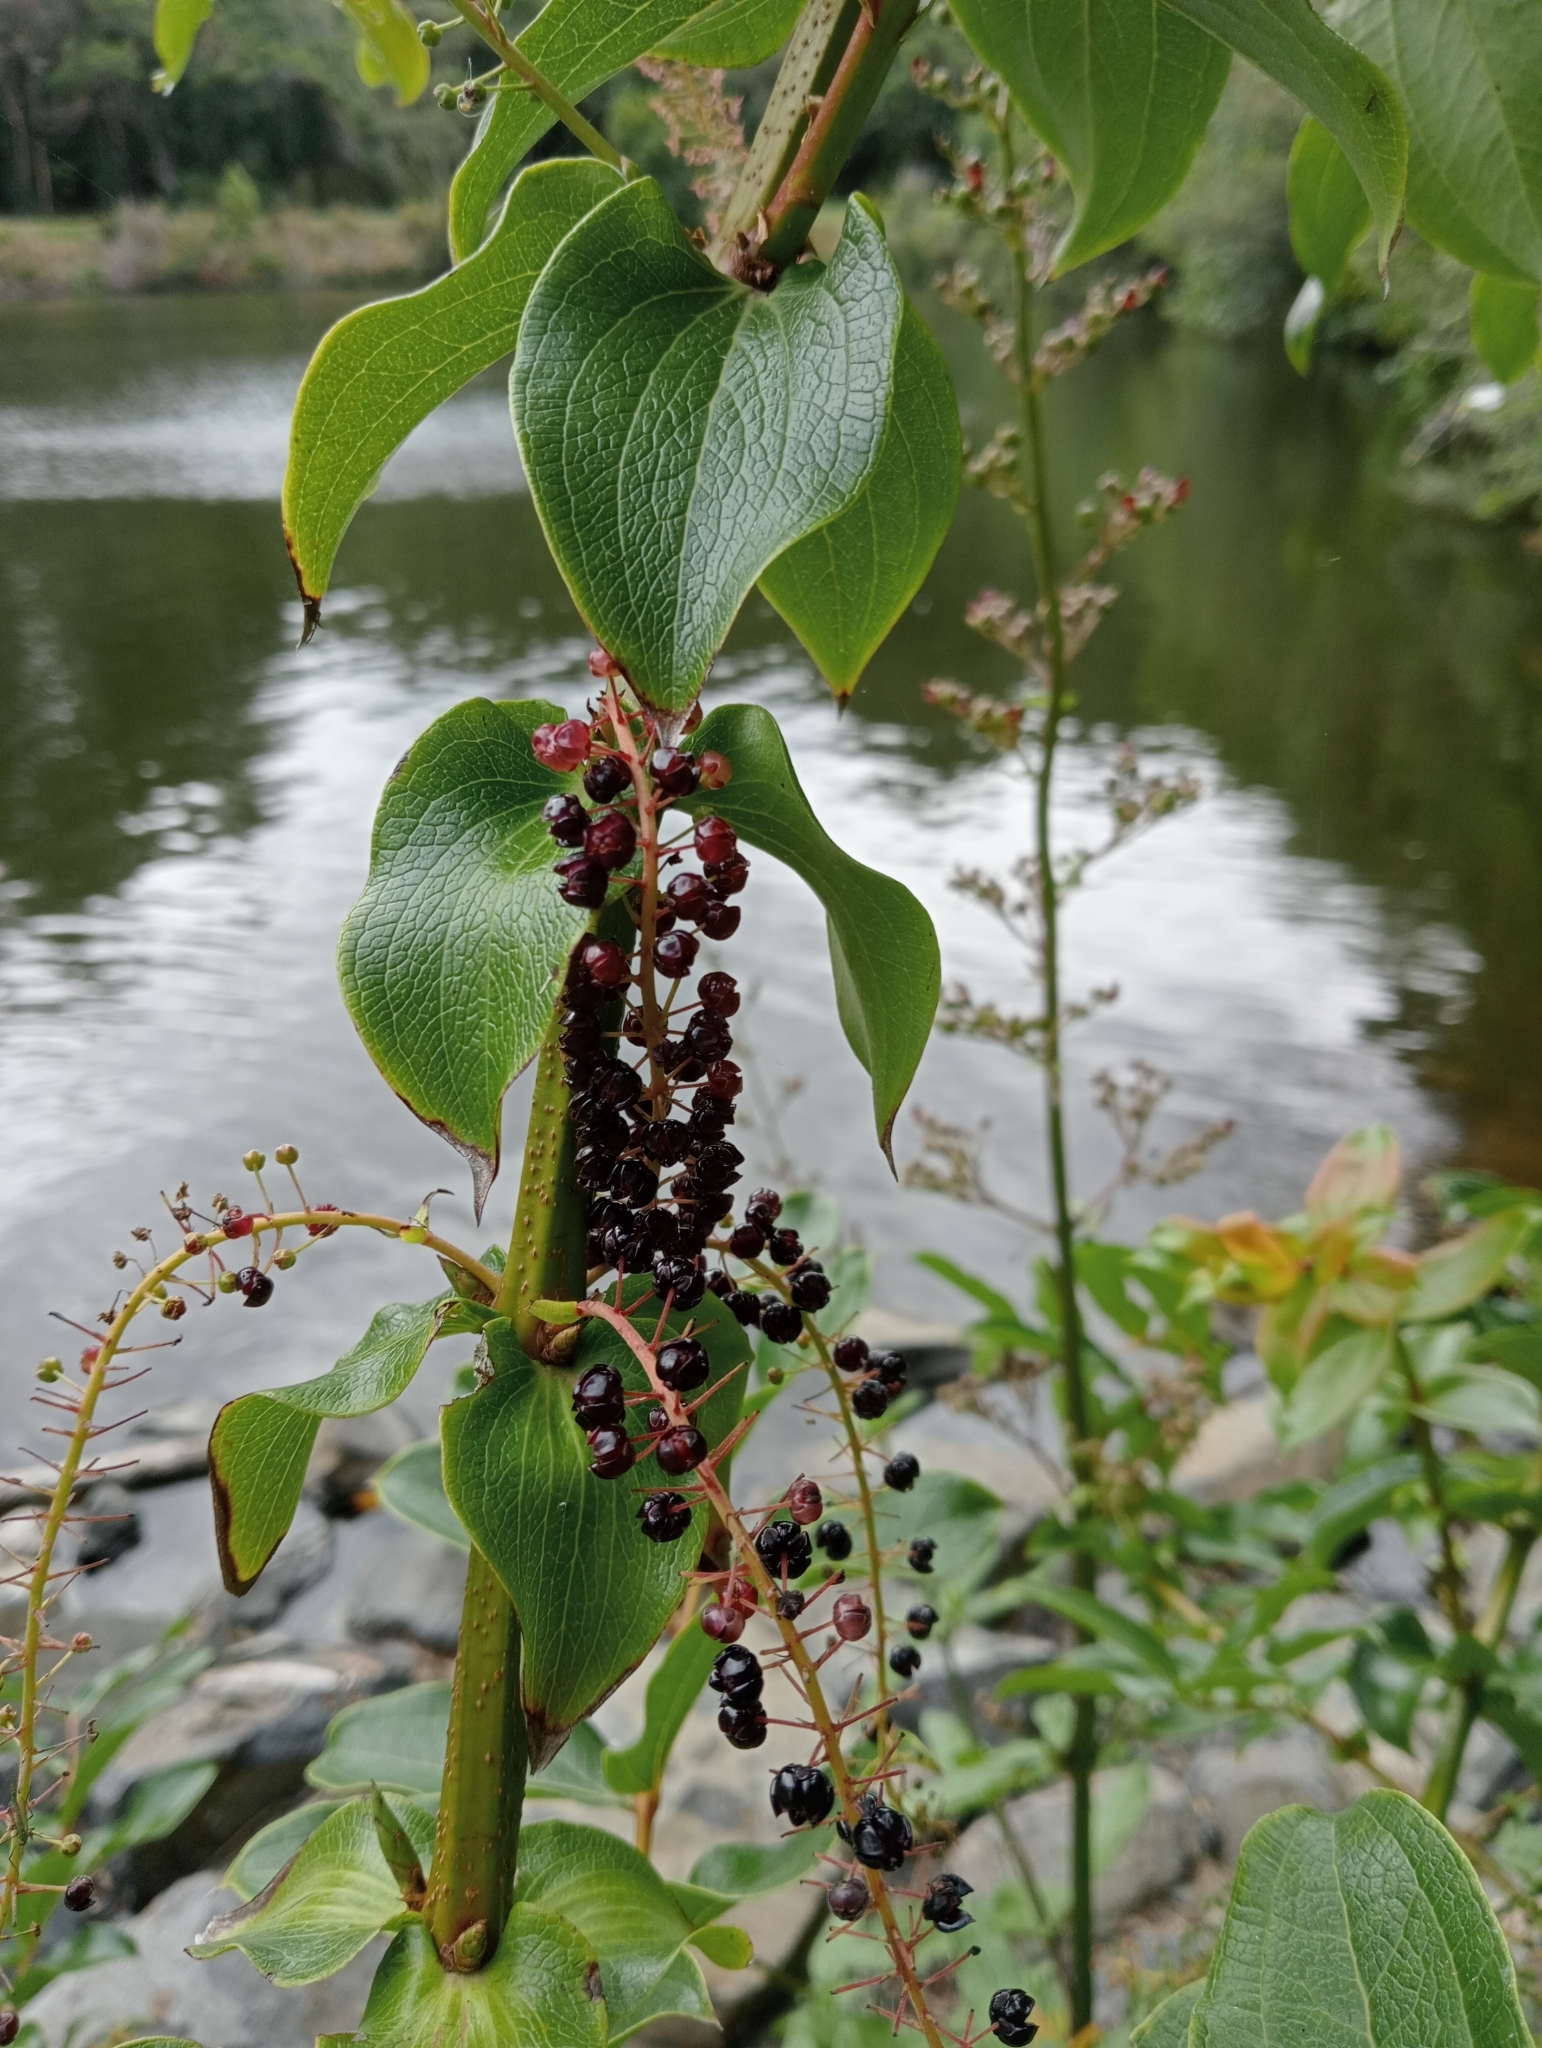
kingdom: Plantae
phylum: Tracheophyta
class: Magnoliopsida
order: Cucurbitales
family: Coriariaceae
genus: Coriaria
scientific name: Coriaria arborea
